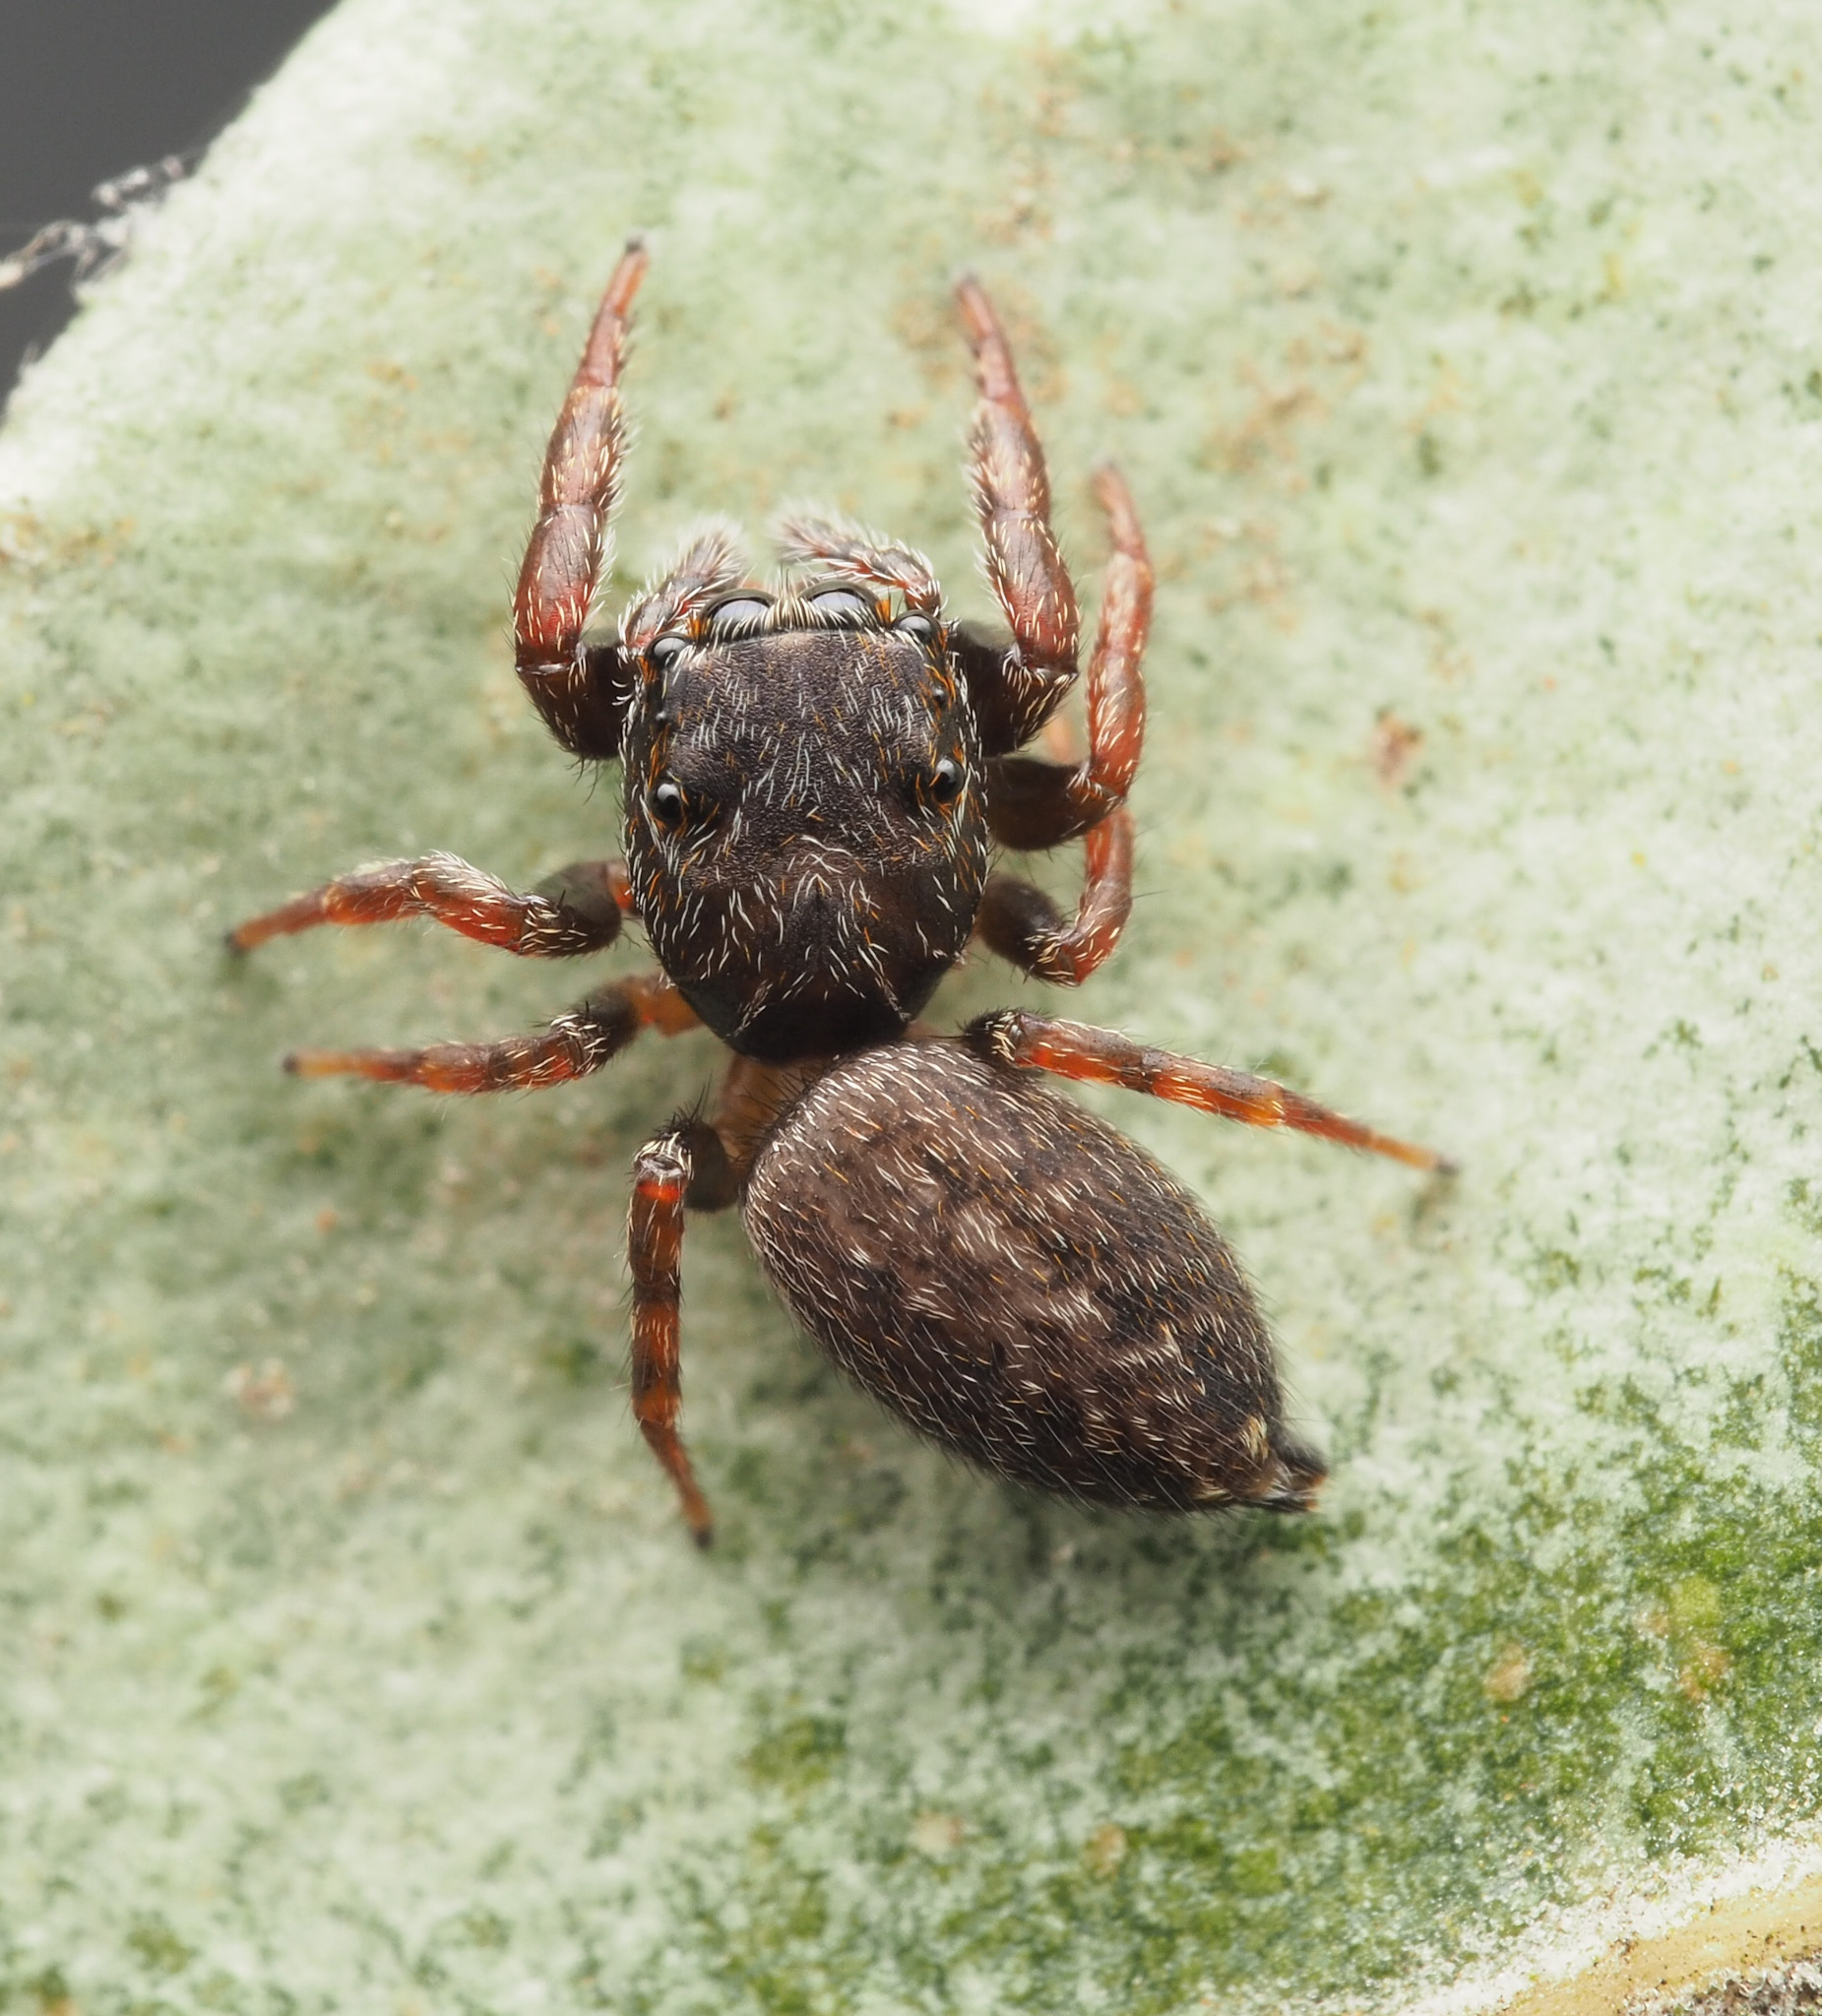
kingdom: Animalia
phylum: Arthropoda
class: Arachnida
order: Araneae
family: Salticidae
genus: Pungalina
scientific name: Pungalina albobarbata
